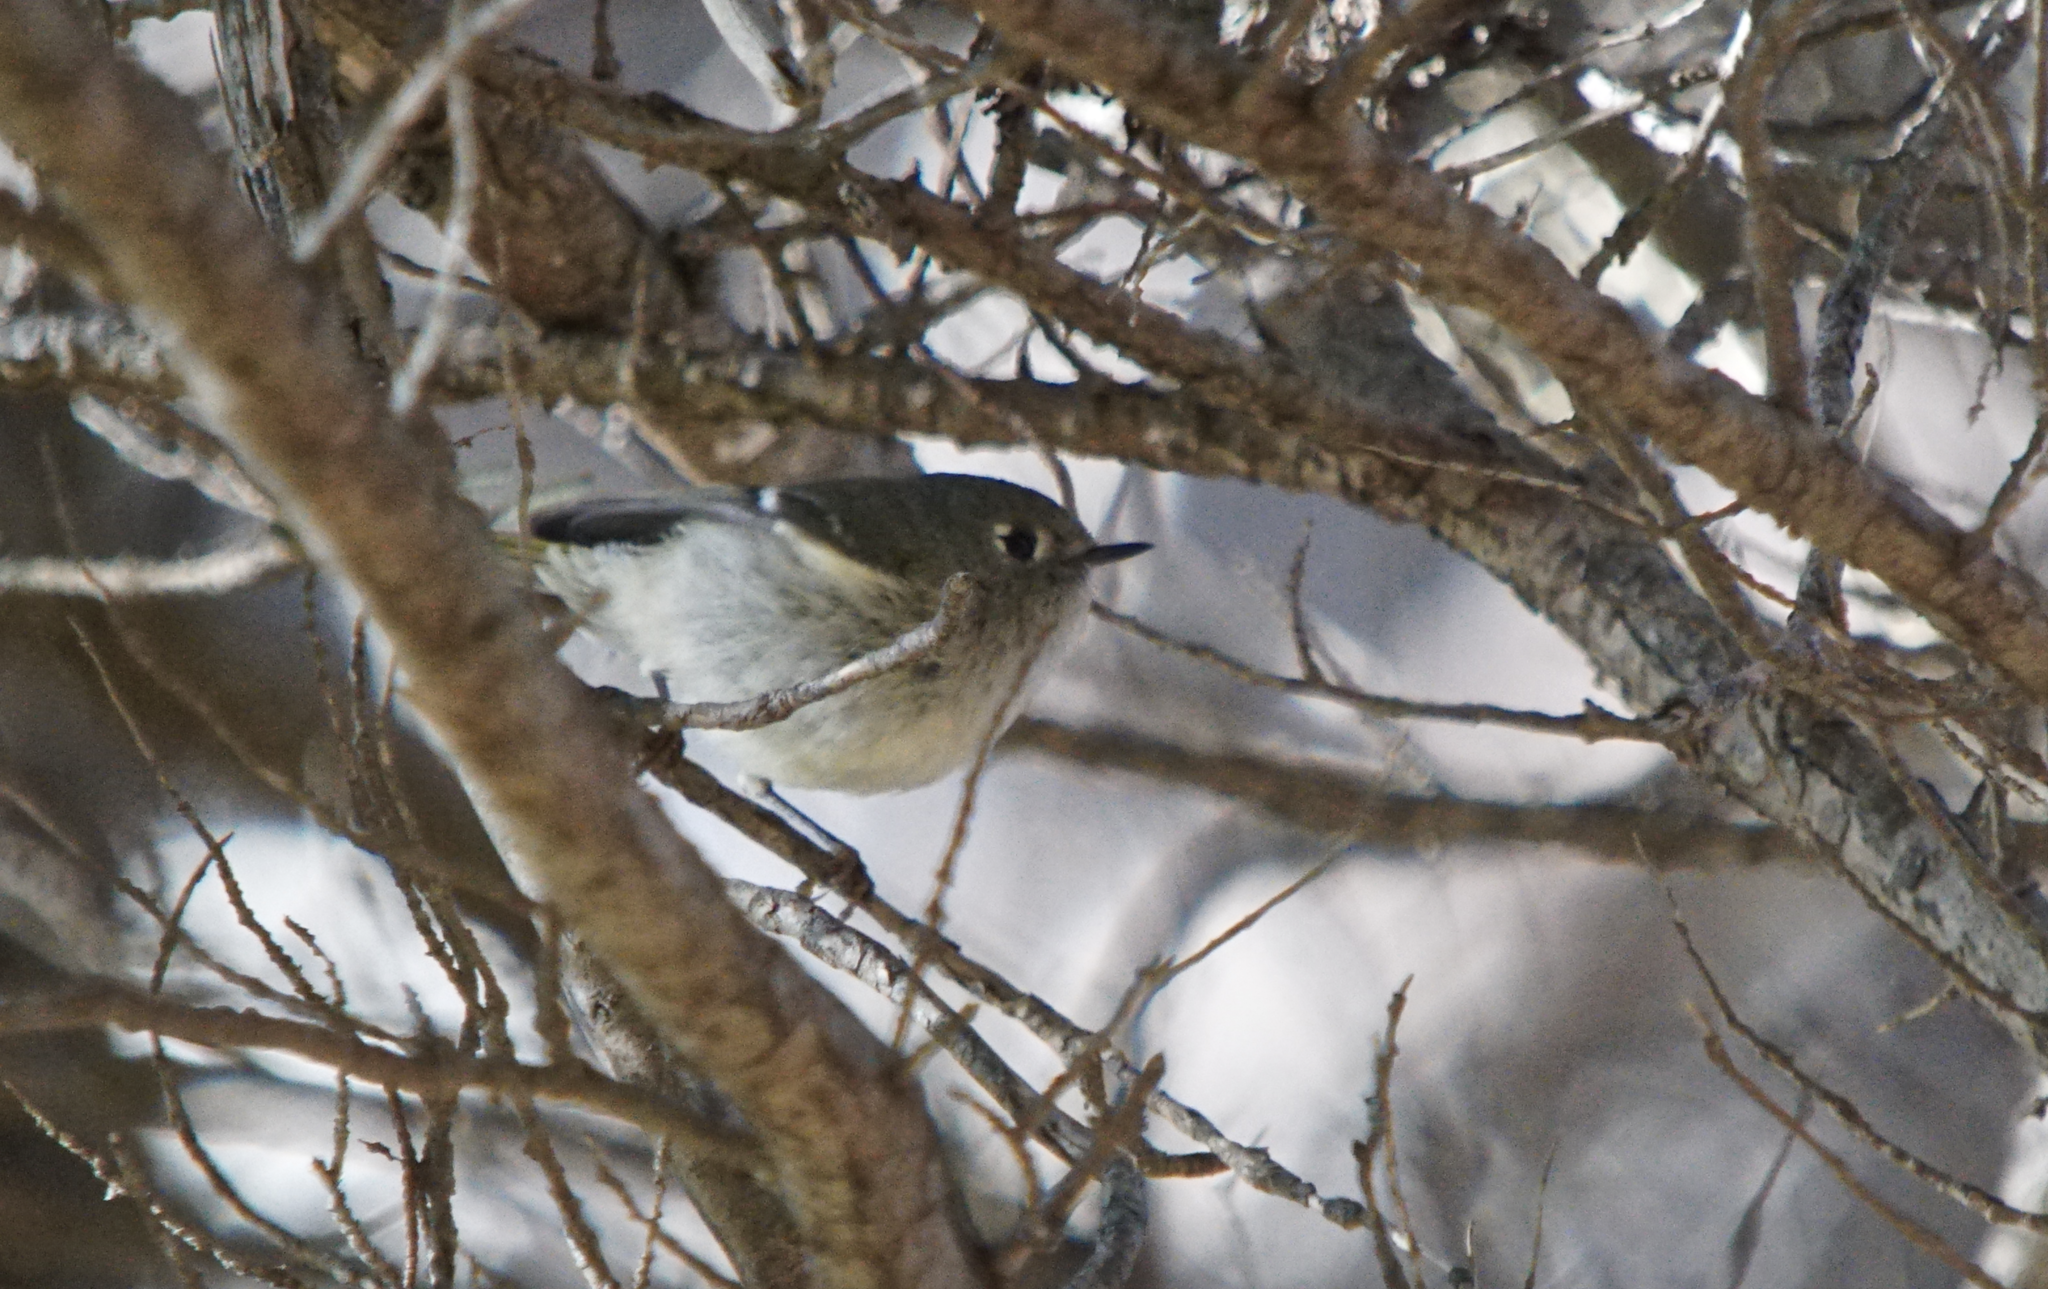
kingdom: Animalia
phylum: Chordata
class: Aves
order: Passeriformes
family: Regulidae
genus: Regulus
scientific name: Regulus calendula
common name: Ruby-crowned kinglet
